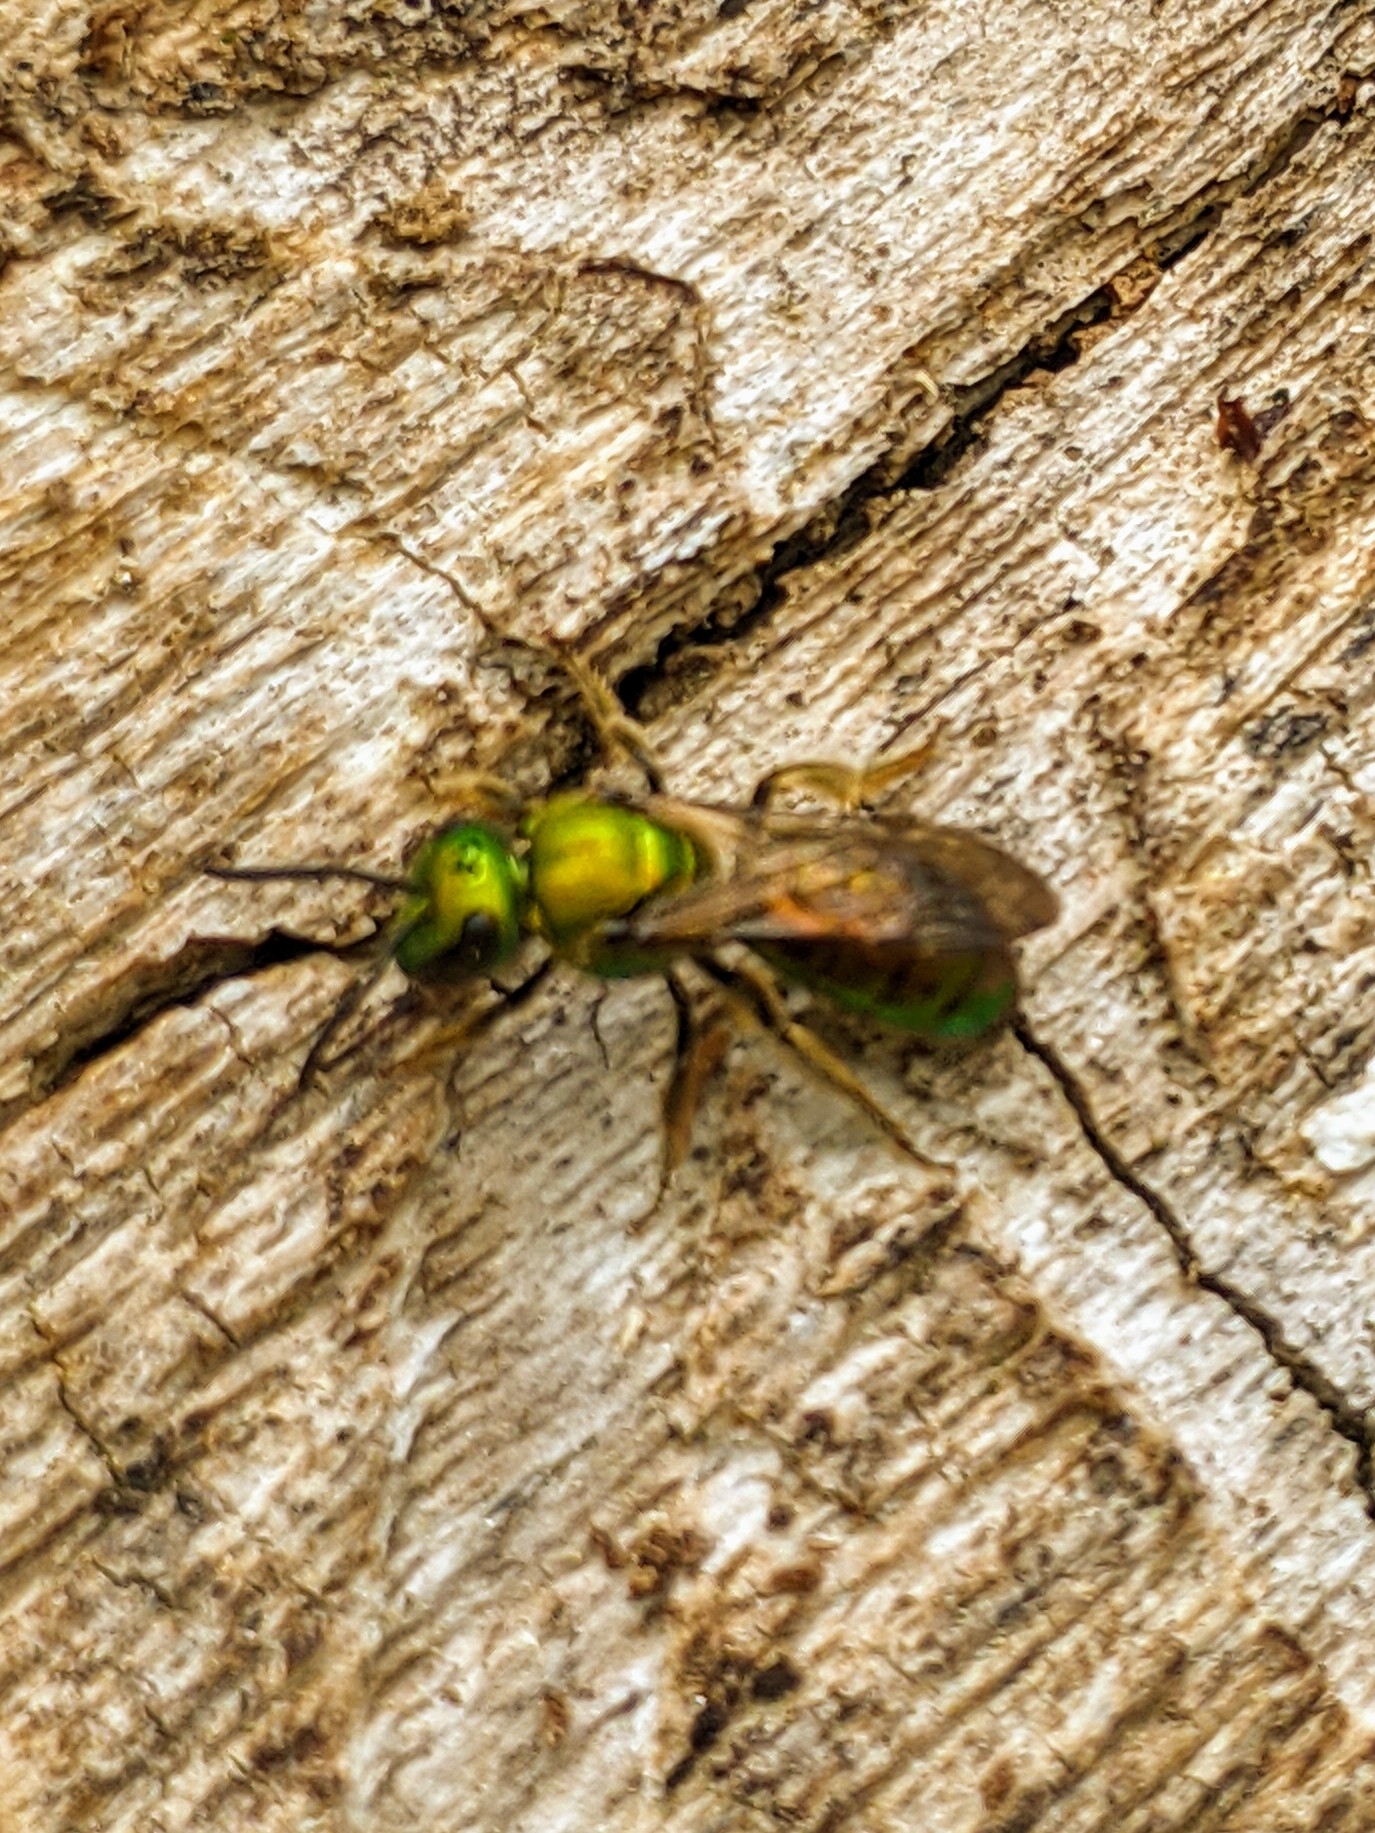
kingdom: Animalia
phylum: Arthropoda
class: Insecta
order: Hymenoptera
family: Halictidae
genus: Augochlora
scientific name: Augochlora pura
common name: Pure green sweat bee
